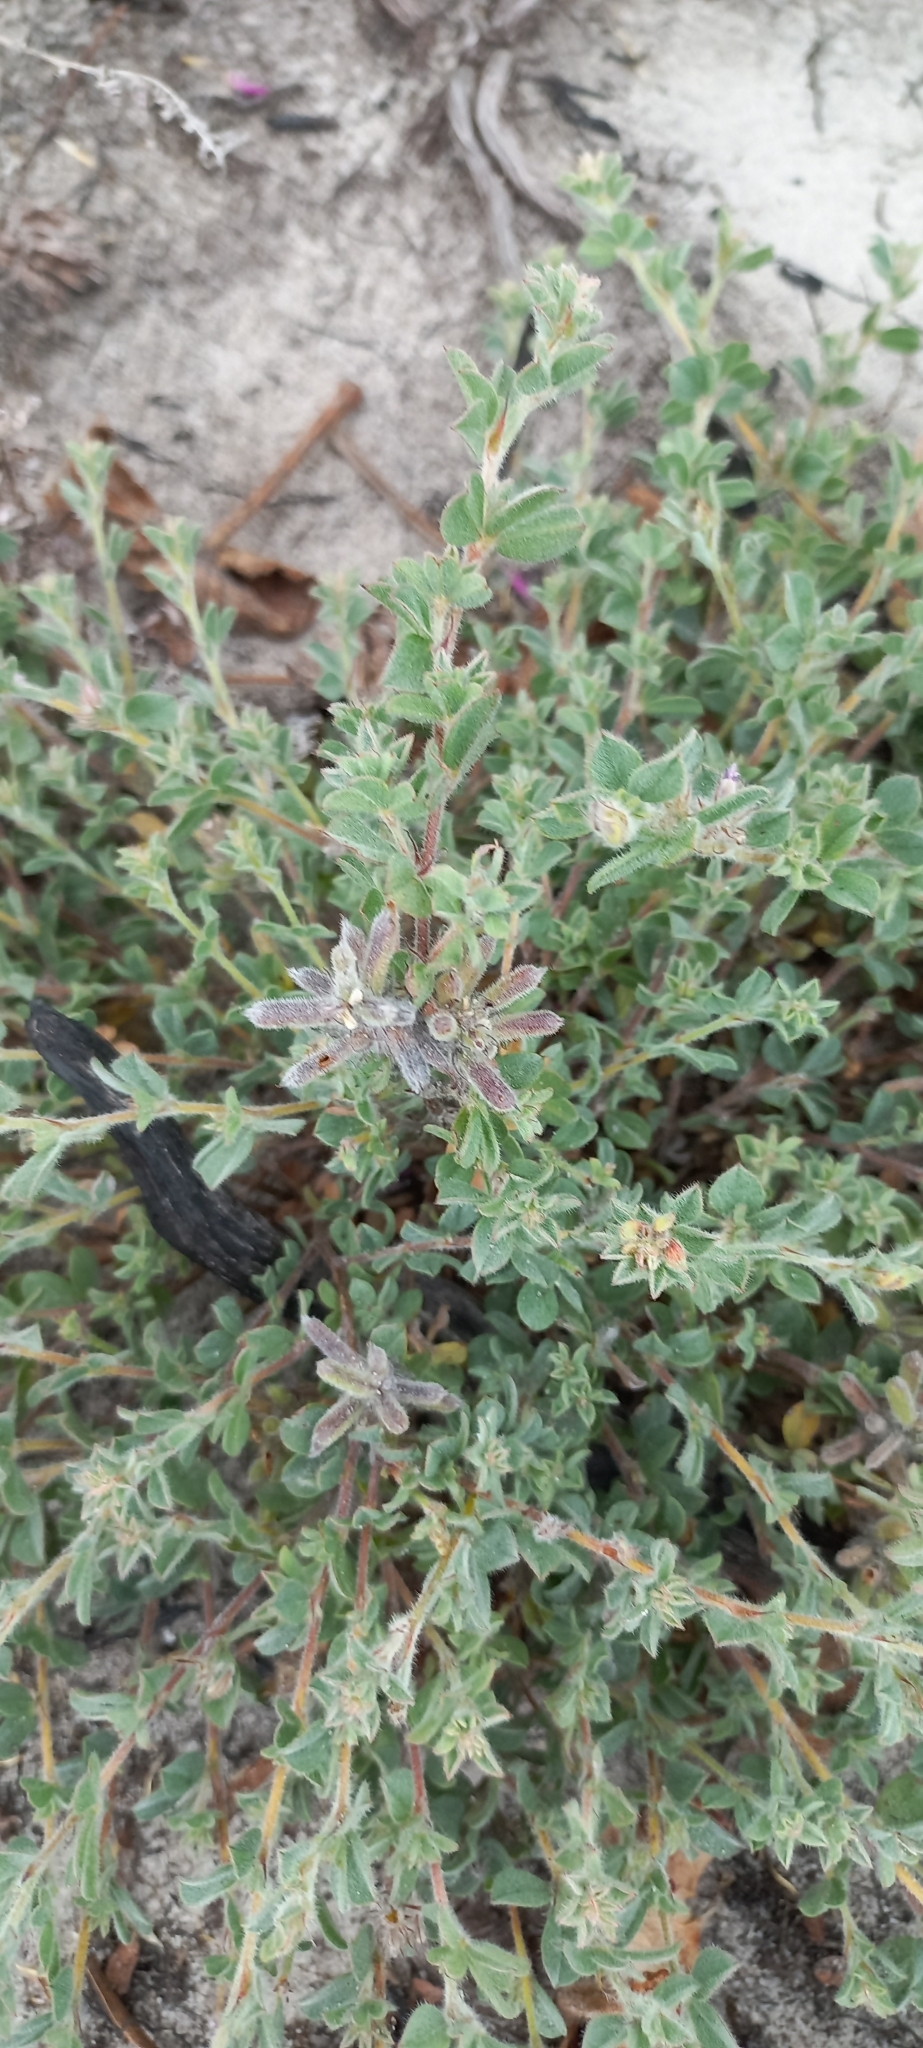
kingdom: Plantae
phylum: Tracheophyta
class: Magnoliopsida
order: Fabales
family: Fabaceae
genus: Indigofera
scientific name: Indigofera glomerata
